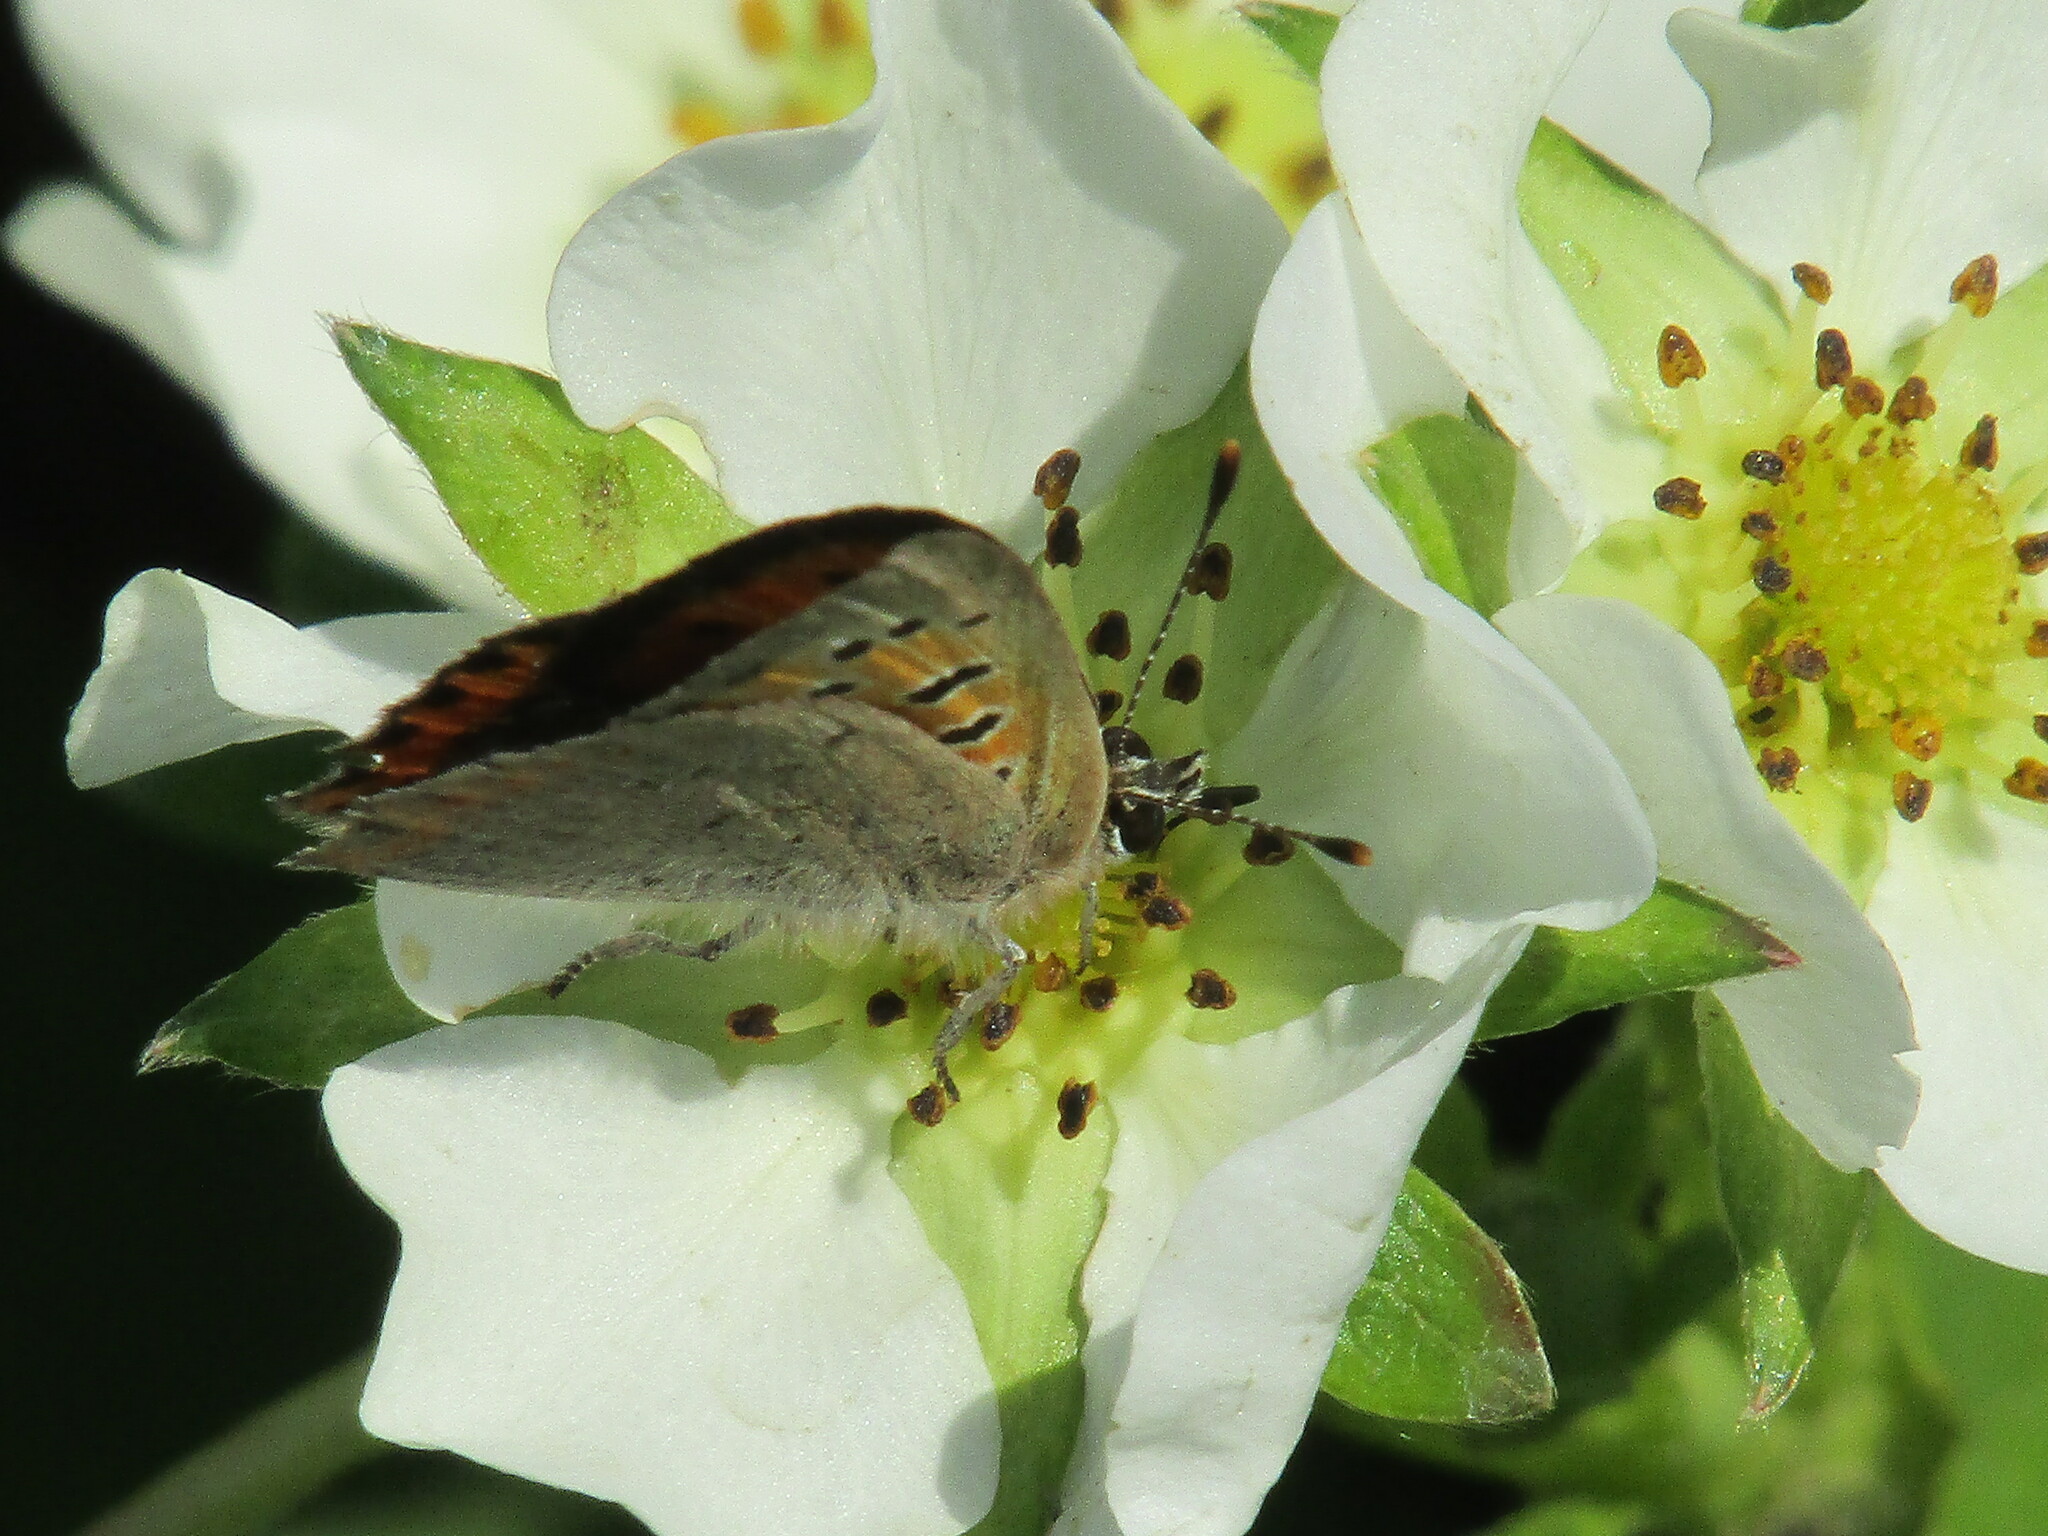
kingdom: Animalia
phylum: Arthropoda
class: Insecta
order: Lepidoptera
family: Lycaenidae
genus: Lycaena
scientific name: Lycaena phlaeas
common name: Small copper
